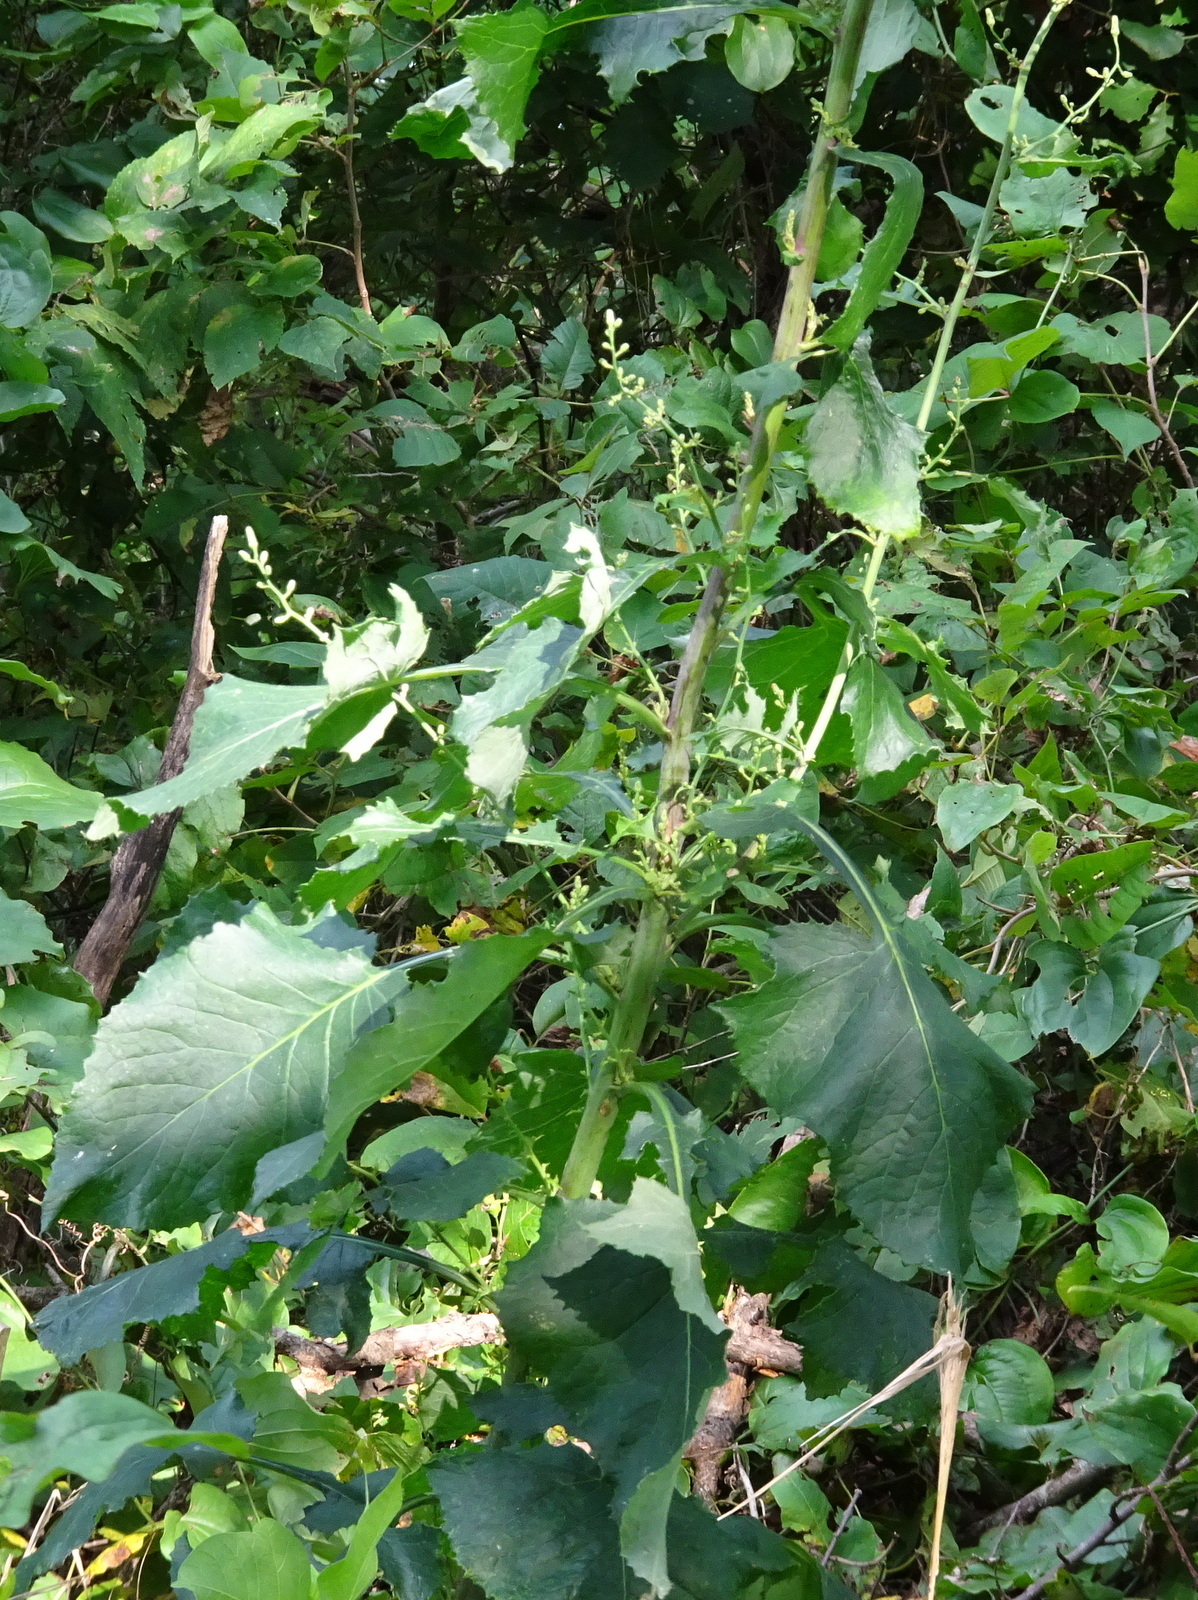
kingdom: Plantae
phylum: Tracheophyta
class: Magnoliopsida
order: Asterales
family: Asteraceae
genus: Lactuca
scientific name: Lactuca floridana
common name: Woodland lettuce
